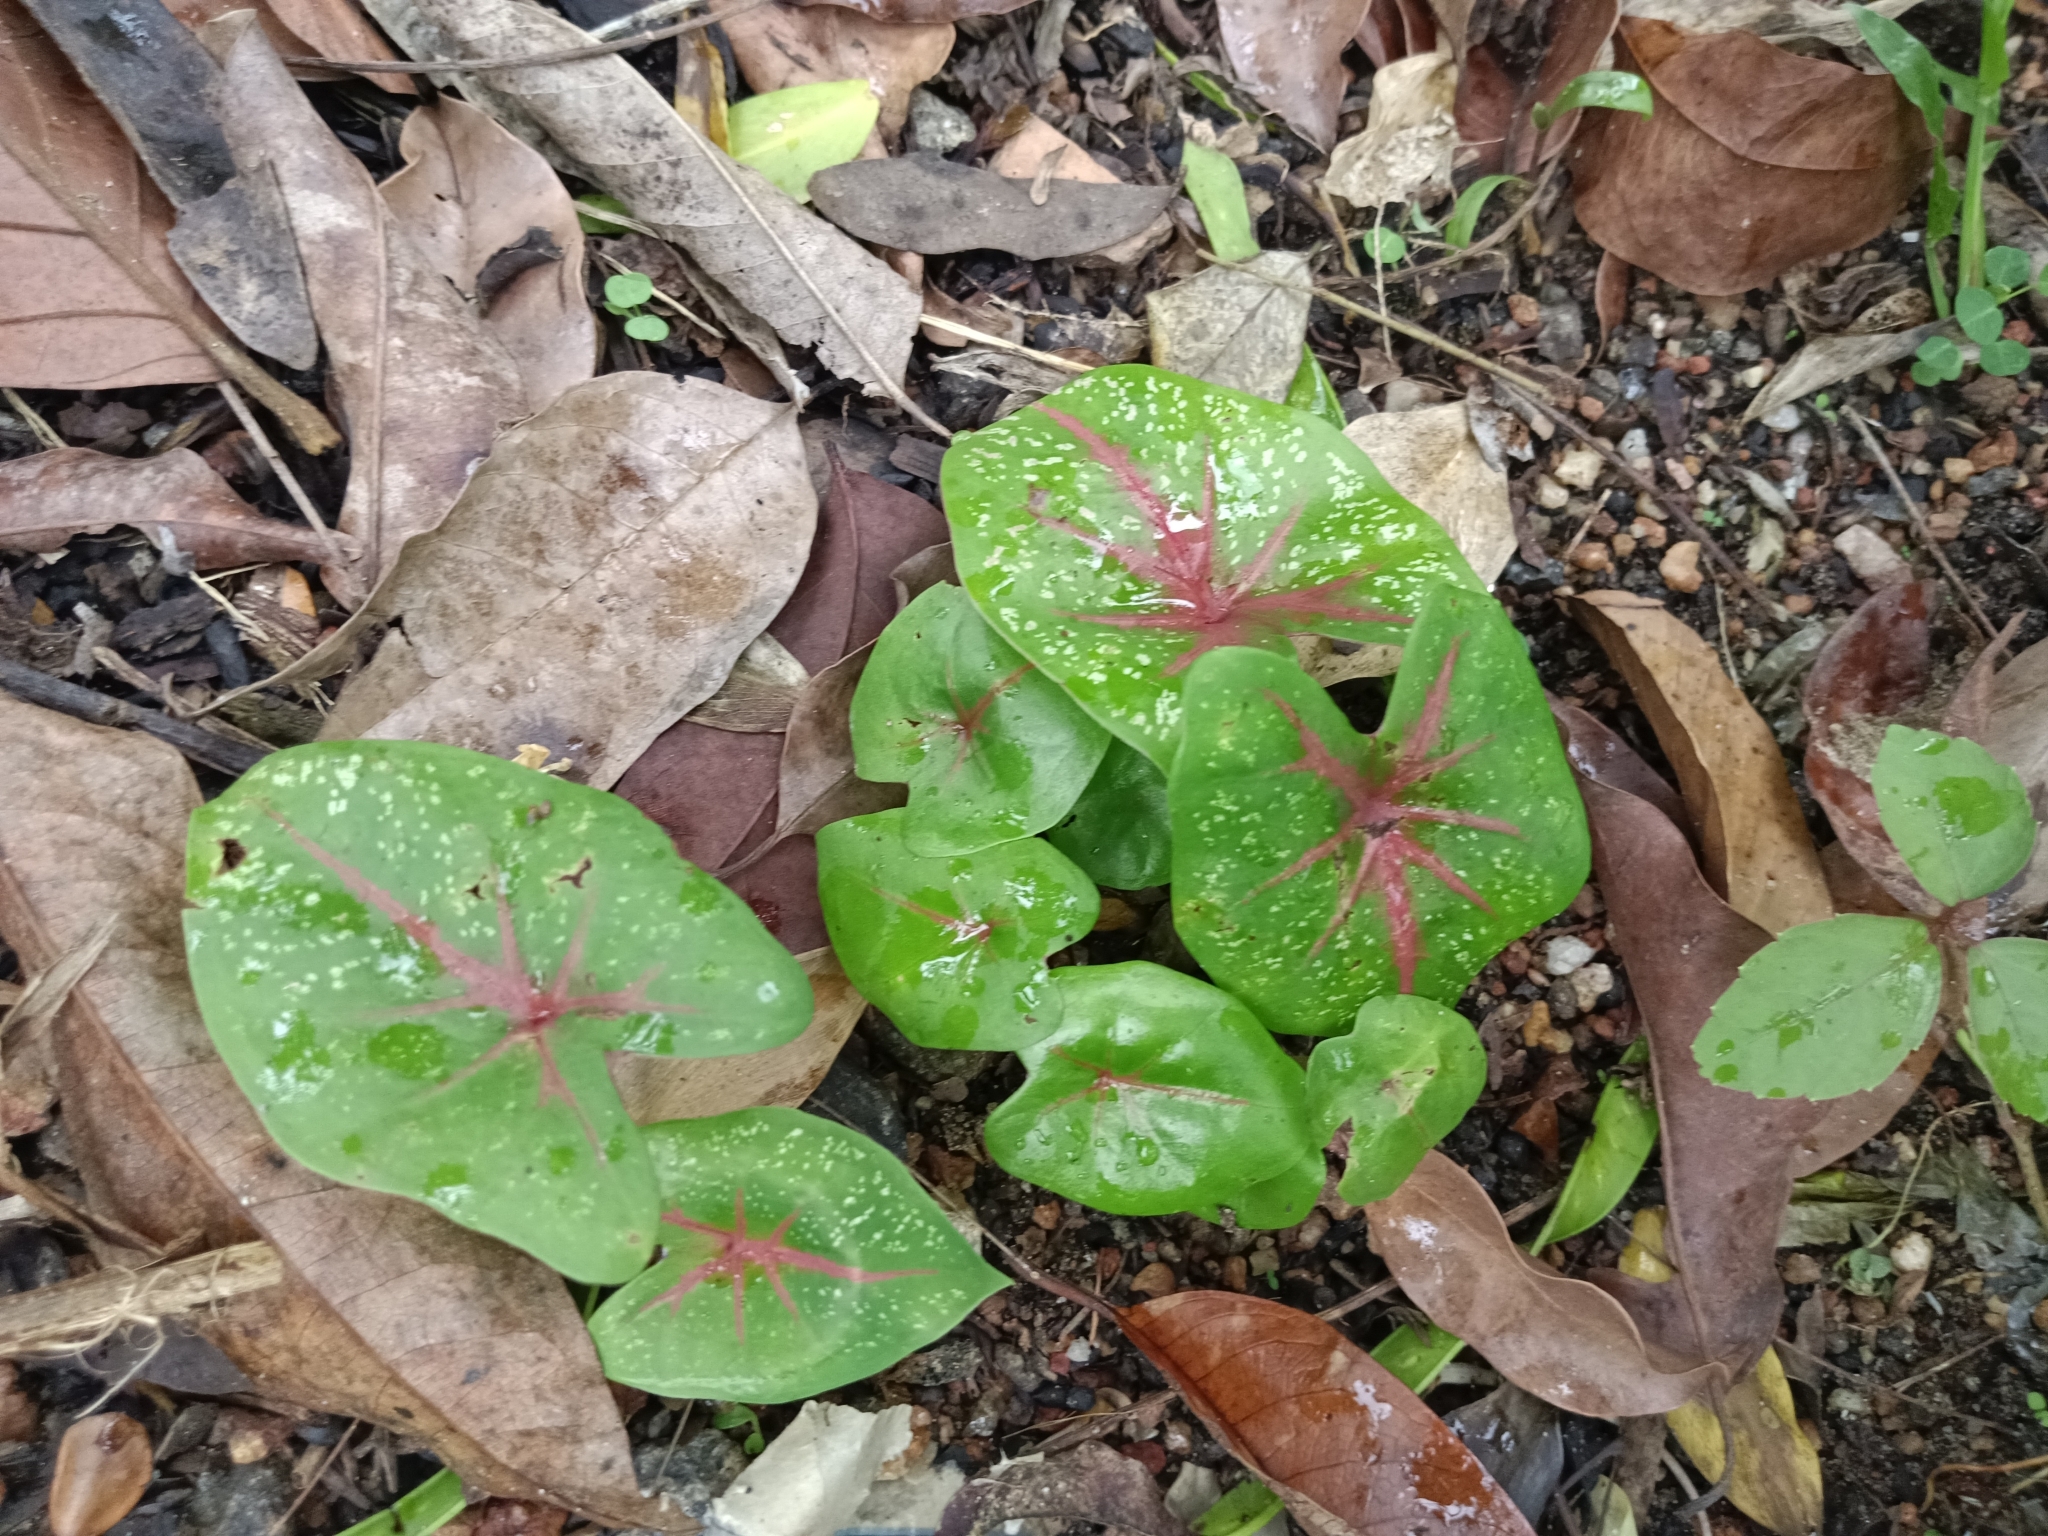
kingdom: Plantae
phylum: Tracheophyta
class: Liliopsida
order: Alismatales
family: Araceae
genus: Caladium
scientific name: Caladium bicolor
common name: Artist's pallet
